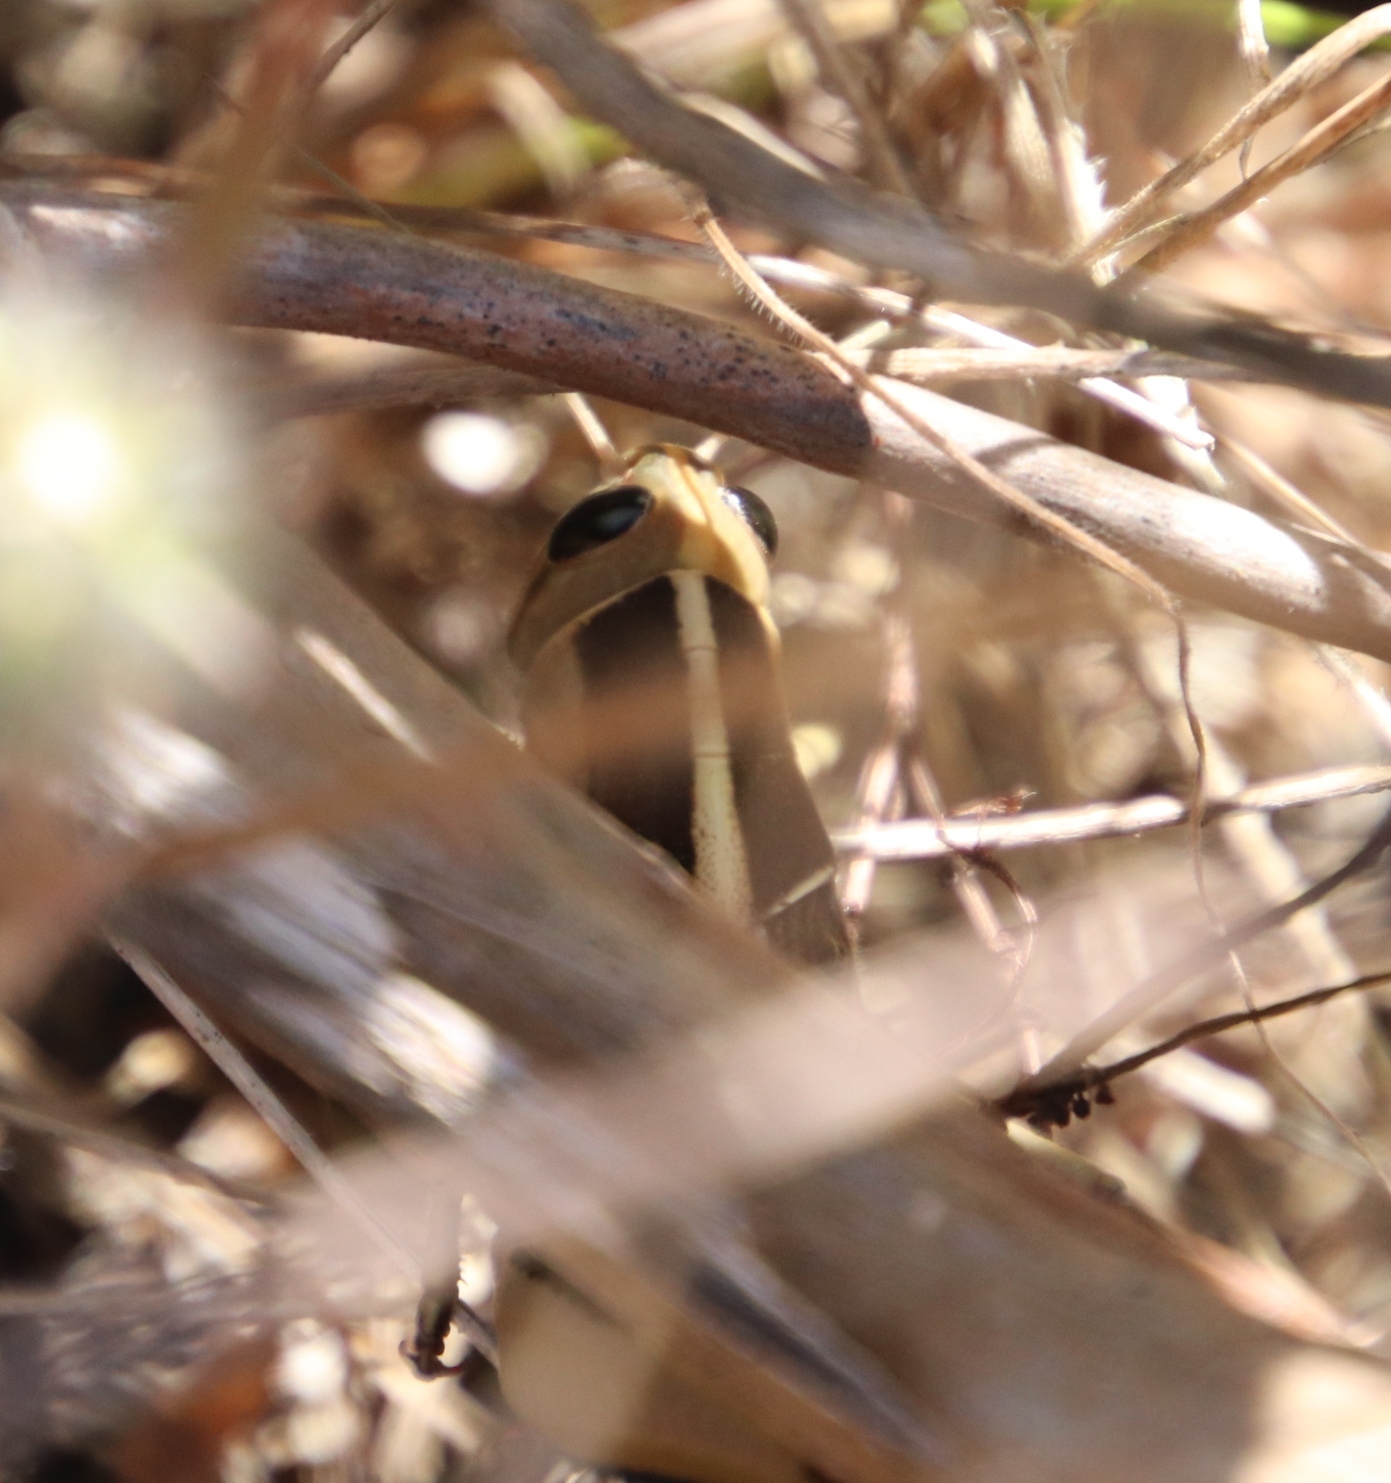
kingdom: Animalia
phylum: Arthropoda
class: Insecta
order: Orthoptera
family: Acrididae
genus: Acanthacris
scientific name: Acanthacris ruficornis
